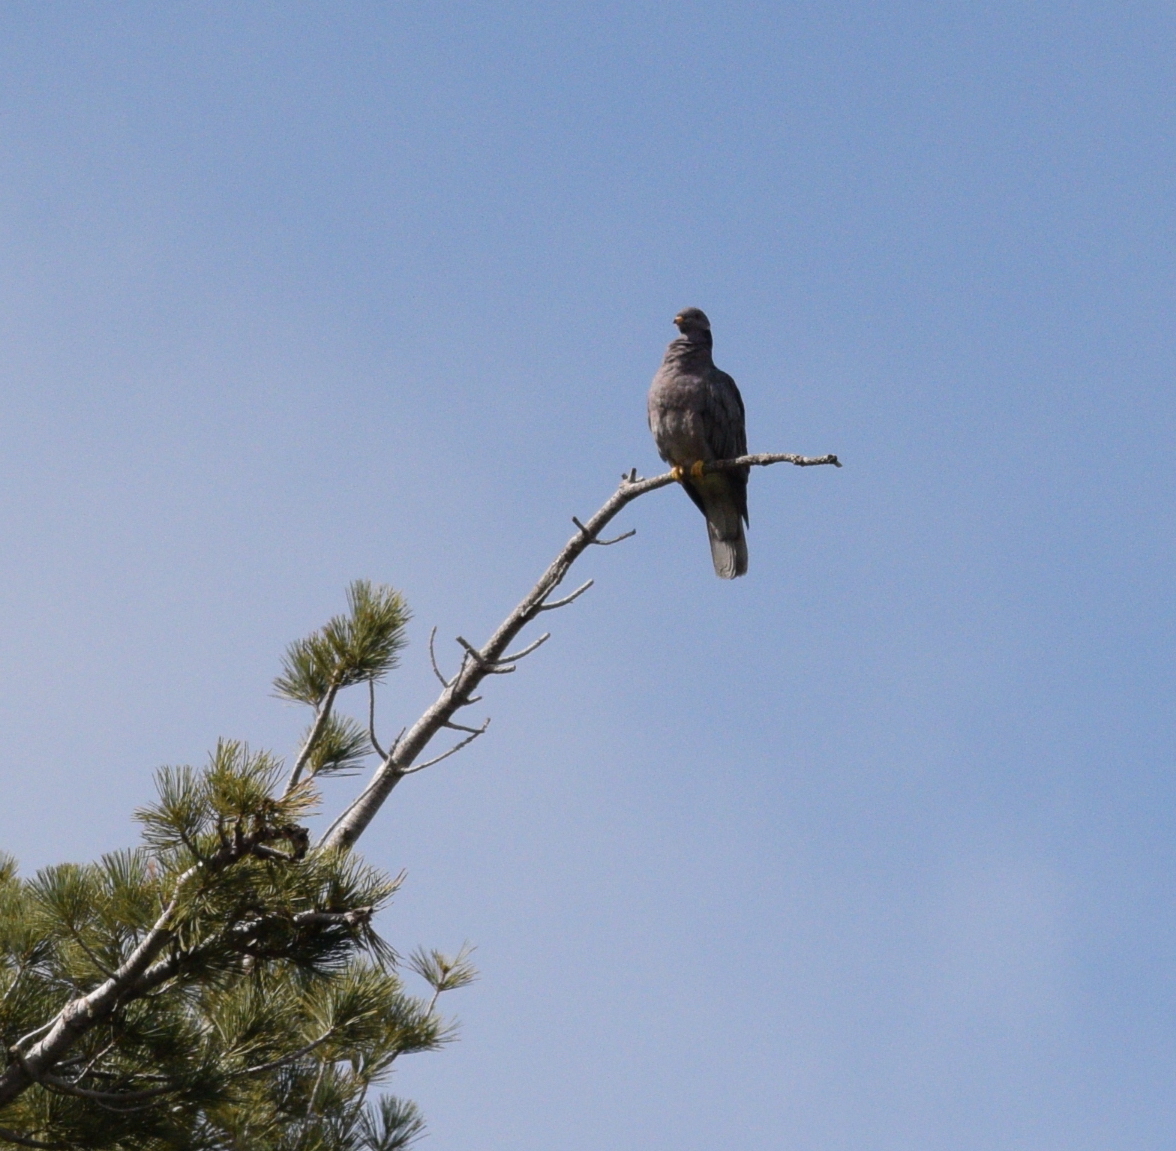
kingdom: Animalia
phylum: Chordata
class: Aves
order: Columbiformes
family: Columbidae
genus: Patagioenas
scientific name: Patagioenas fasciata
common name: Band-tailed pigeon
